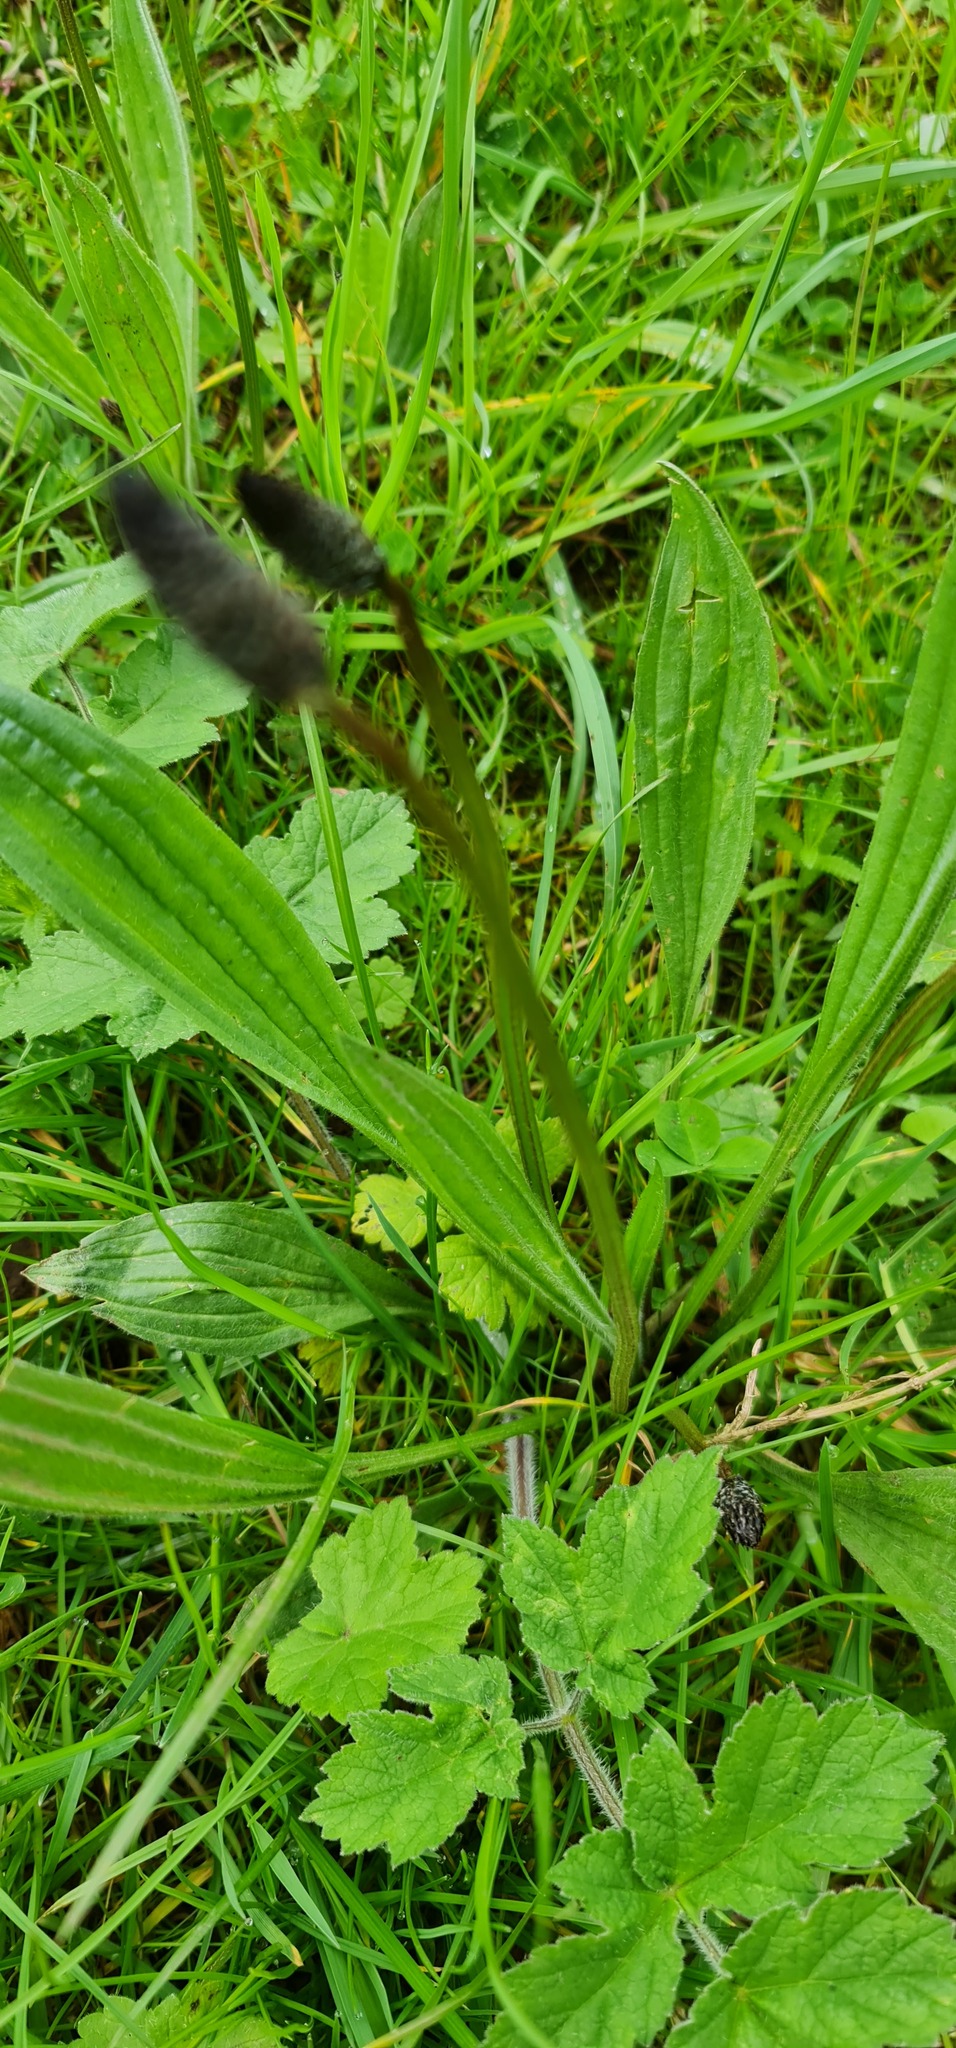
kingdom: Plantae
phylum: Tracheophyta
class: Magnoliopsida
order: Lamiales
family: Plantaginaceae
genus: Plantago
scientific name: Plantago lanceolata
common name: Ribwort plantain
